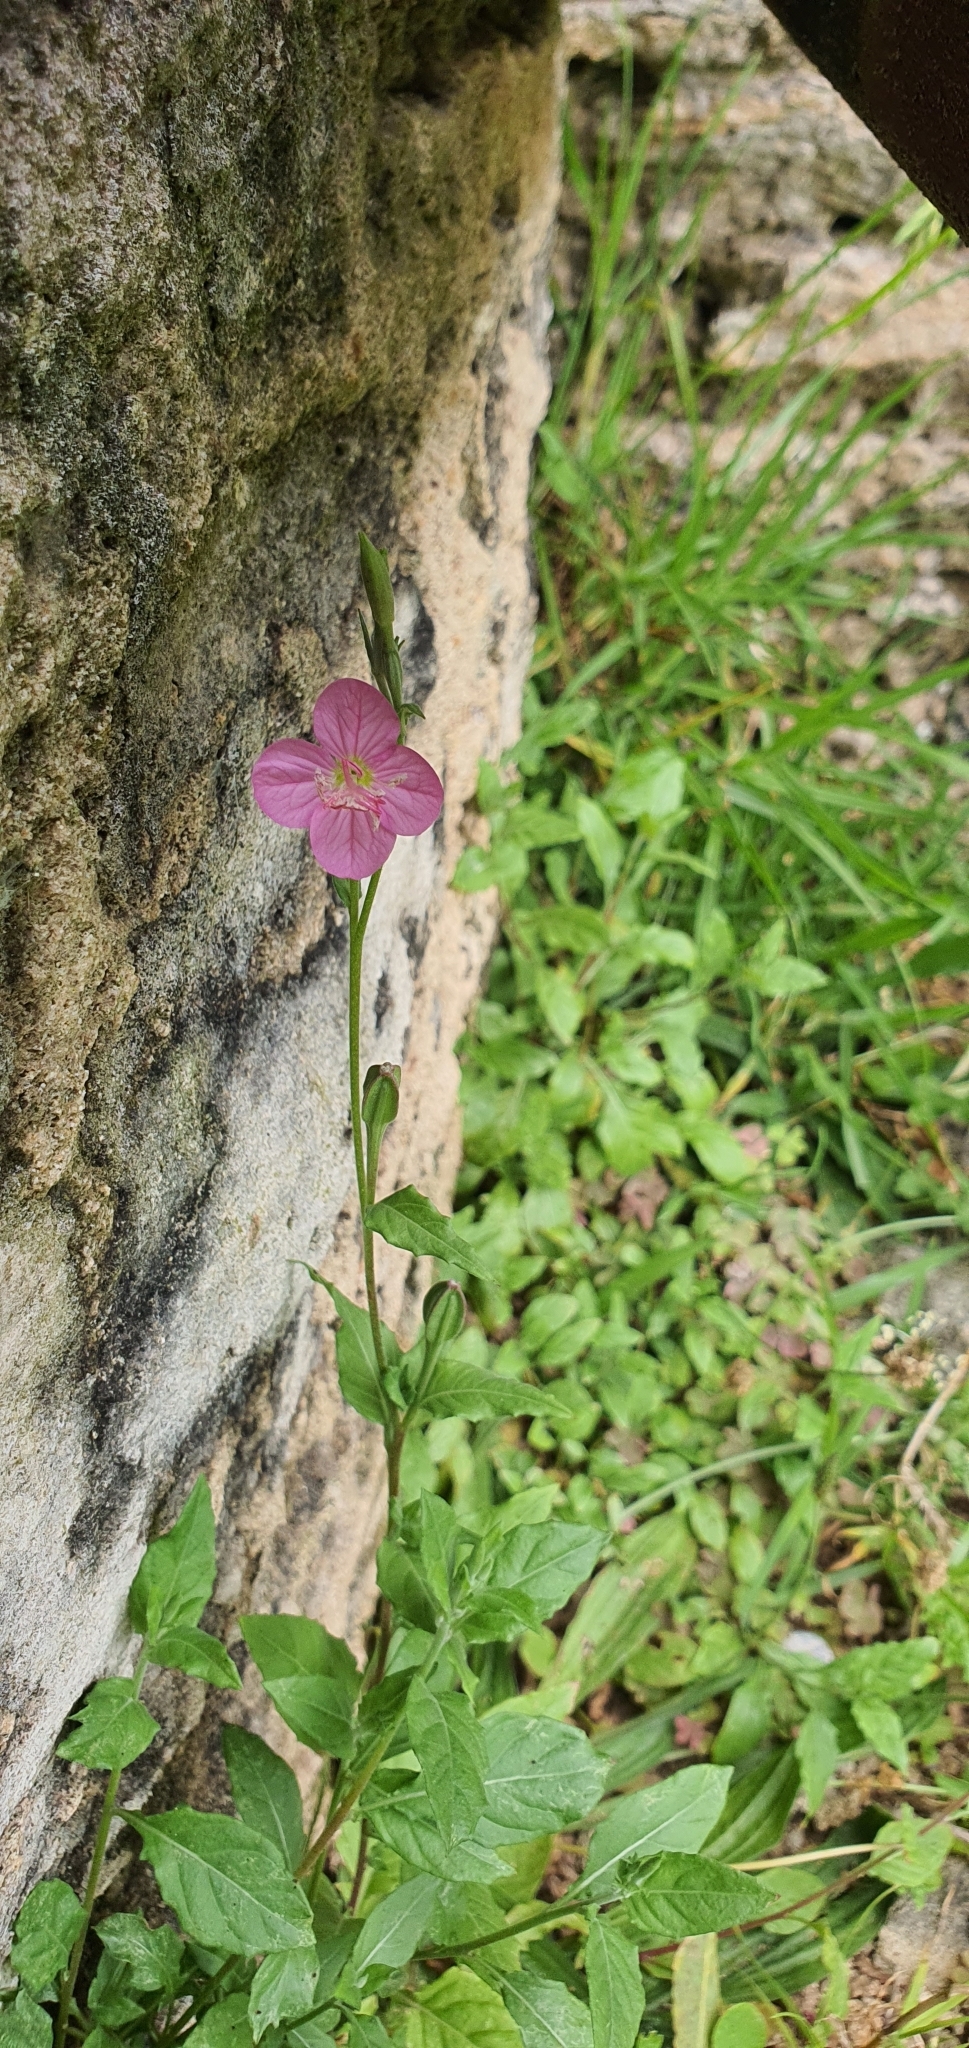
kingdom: Plantae
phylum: Tracheophyta
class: Magnoliopsida
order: Myrtales
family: Onagraceae
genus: Oenothera
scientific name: Oenothera rosea
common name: Rosy evening-primrose
